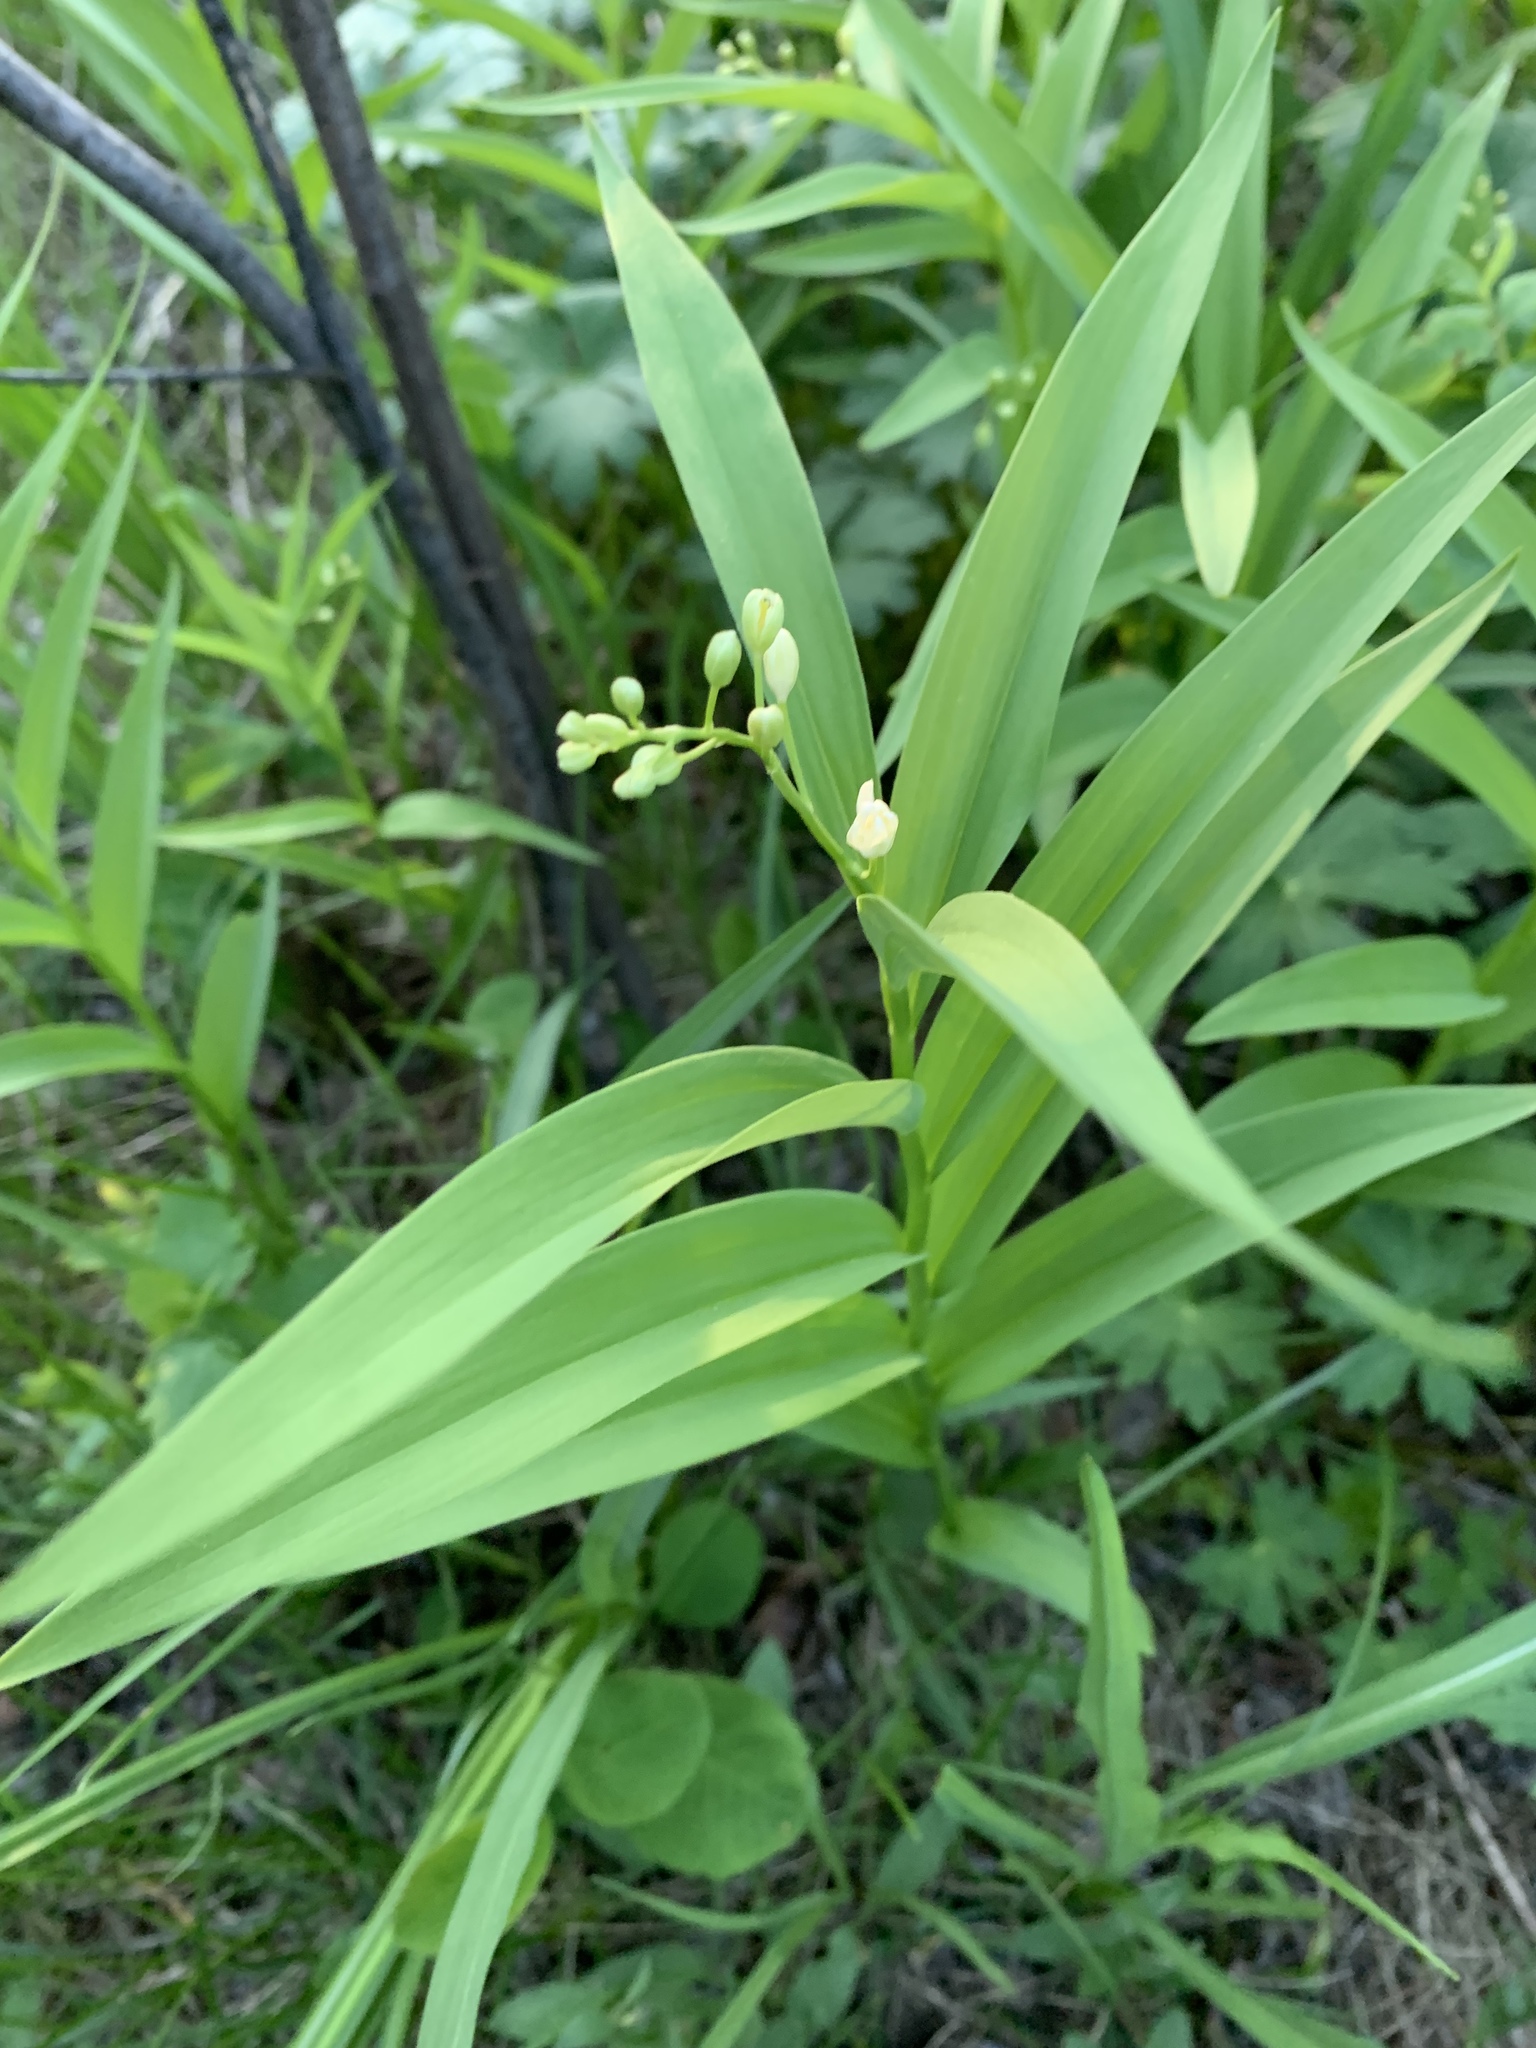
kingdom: Plantae
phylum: Tracheophyta
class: Liliopsida
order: Asparagales
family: Asparagaceae
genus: Maianthemum
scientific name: Maianthemum stellatum
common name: Little false solomon's seal
